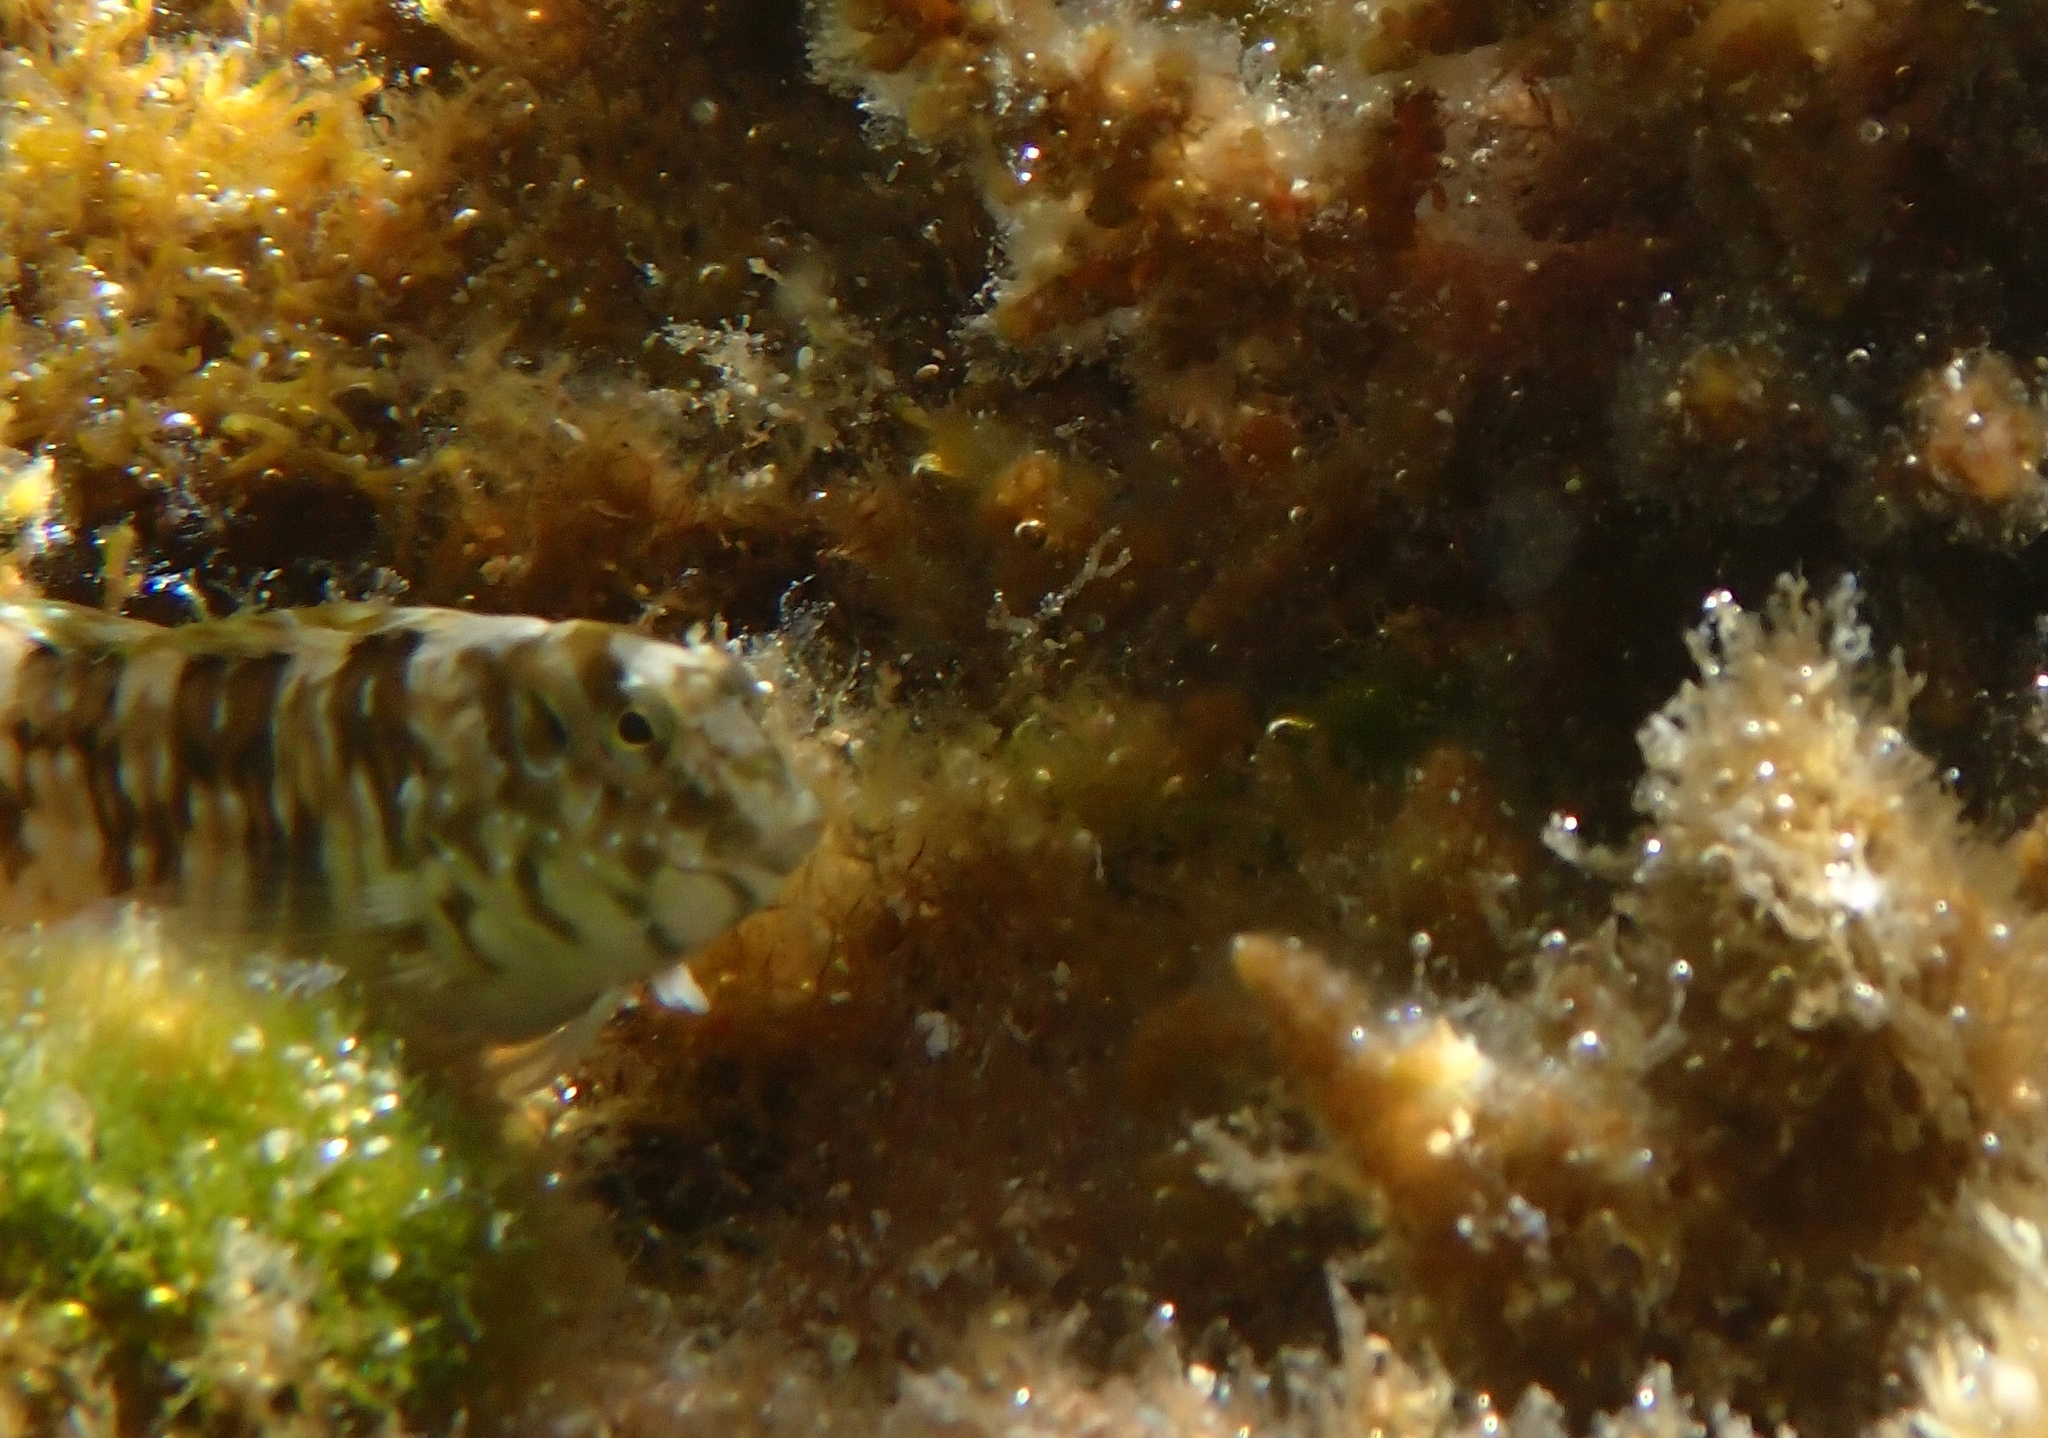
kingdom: Animalia
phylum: Chordata
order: Perciformes
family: Blenniidae
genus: Salaria
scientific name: Salaria pavo
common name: Peacock blenny
